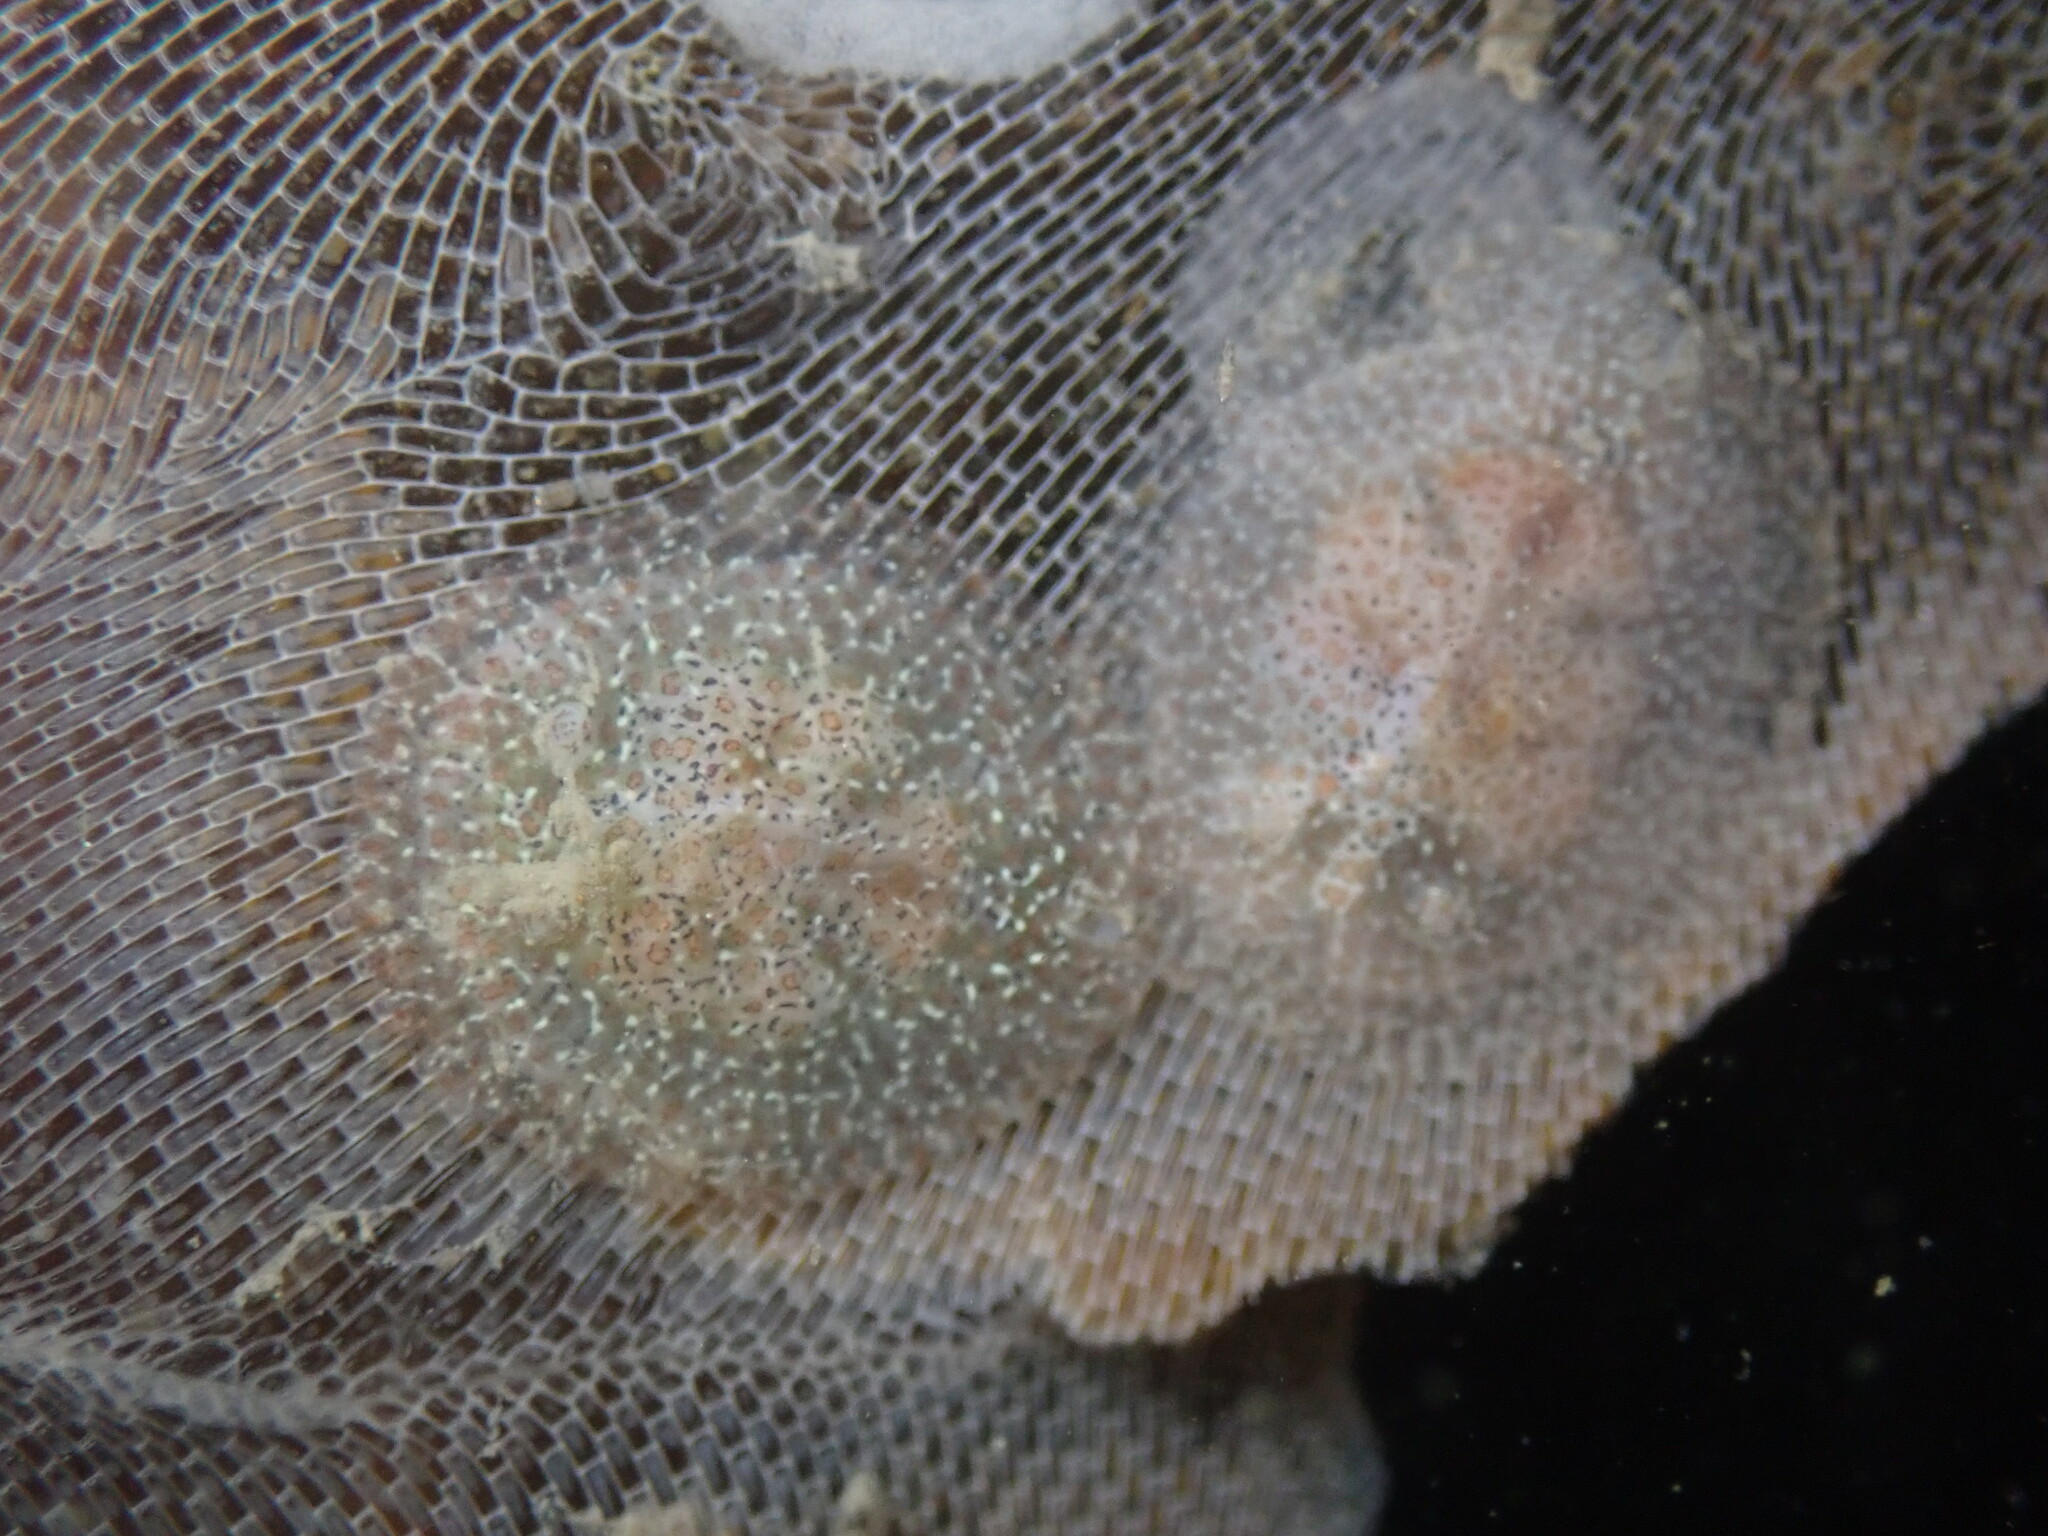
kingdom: Animalia
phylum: Mollusca
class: Gastropoda
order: Nudibranchia
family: Corambidae
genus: Corambe
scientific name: Corambe pacifica
